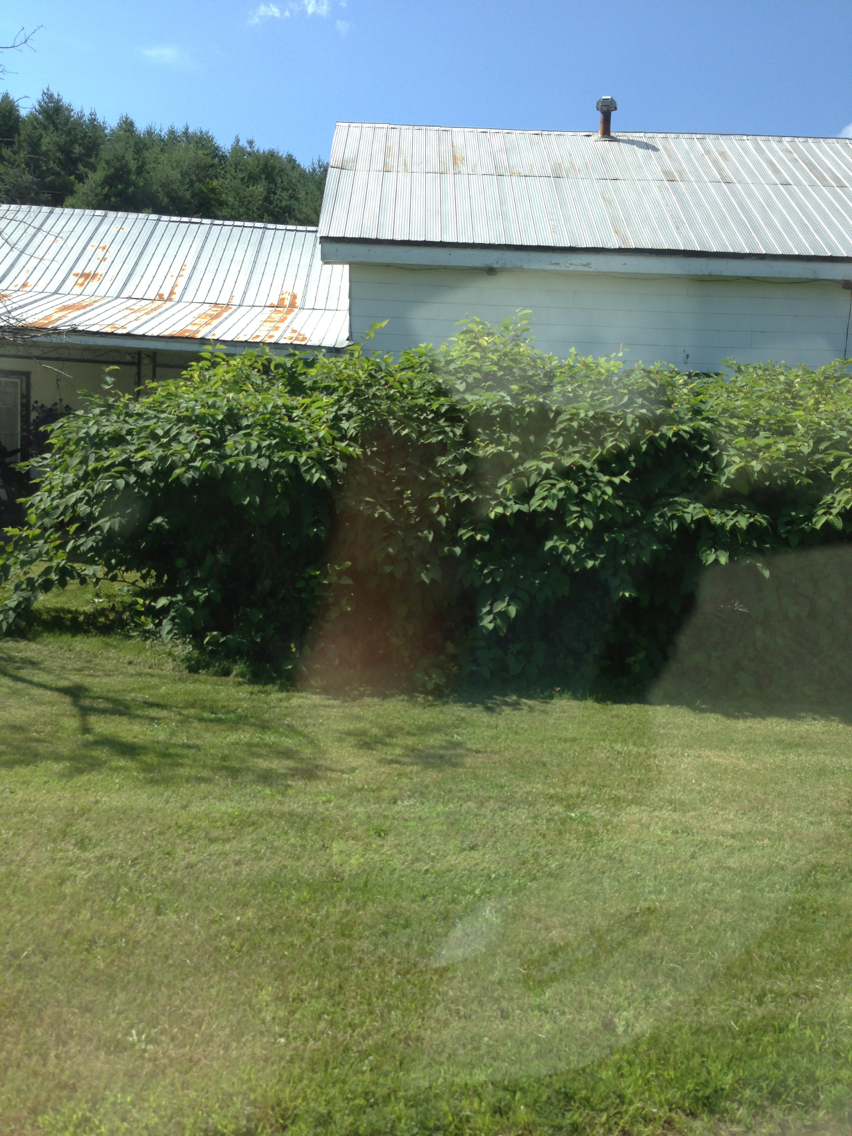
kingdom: Plantae
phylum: Tracheophyta
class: Magnoliopsida
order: Caryophyllales
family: Polygonaceae
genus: Reynoutria
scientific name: Reynoutria japonica
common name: Japanese knotweed
